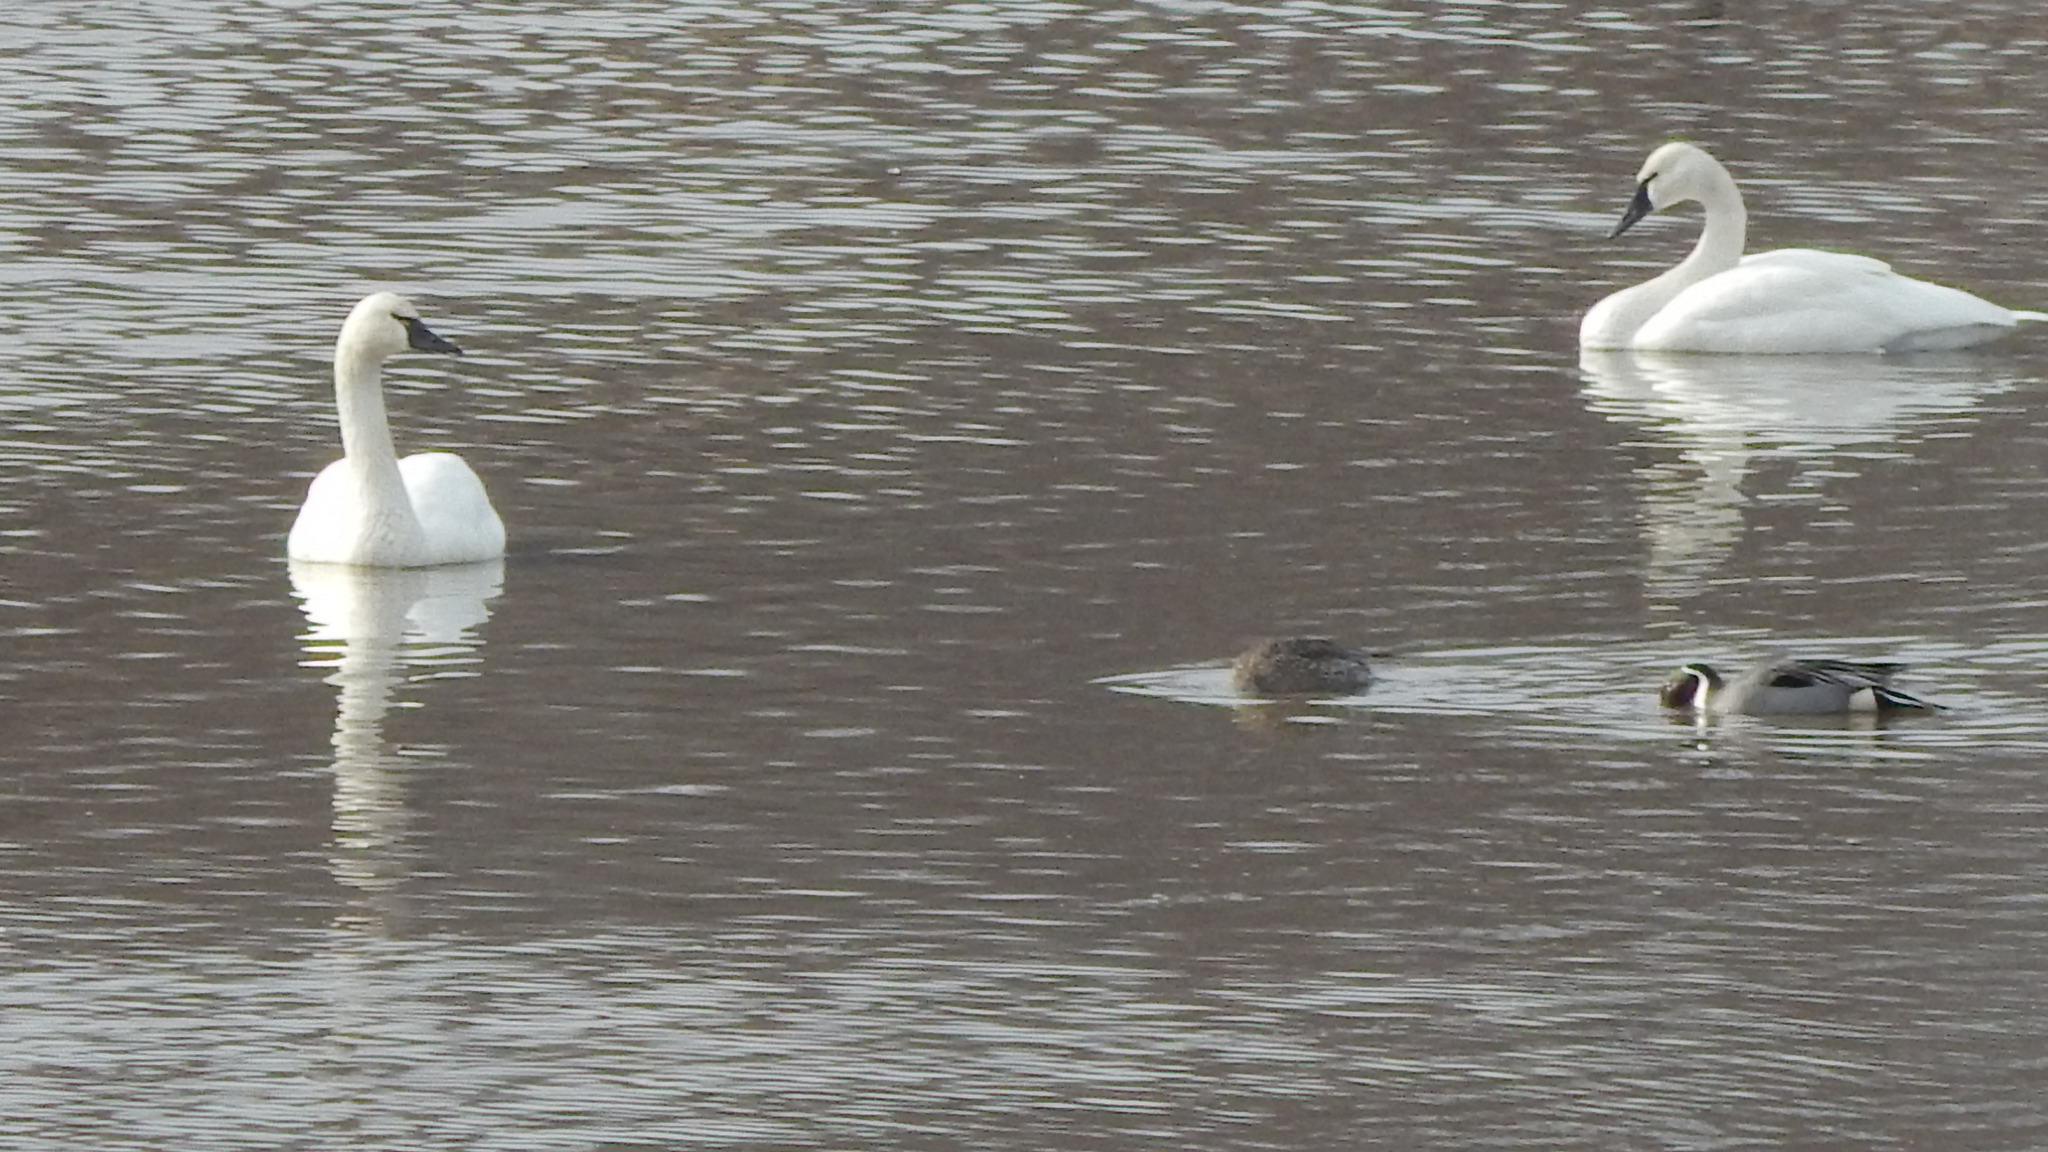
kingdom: Animalia
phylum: Chordata
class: Aves
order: Anseriformes
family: Anatidae
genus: Cygnus
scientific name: Cygnus columbianus
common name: Tundra swan
